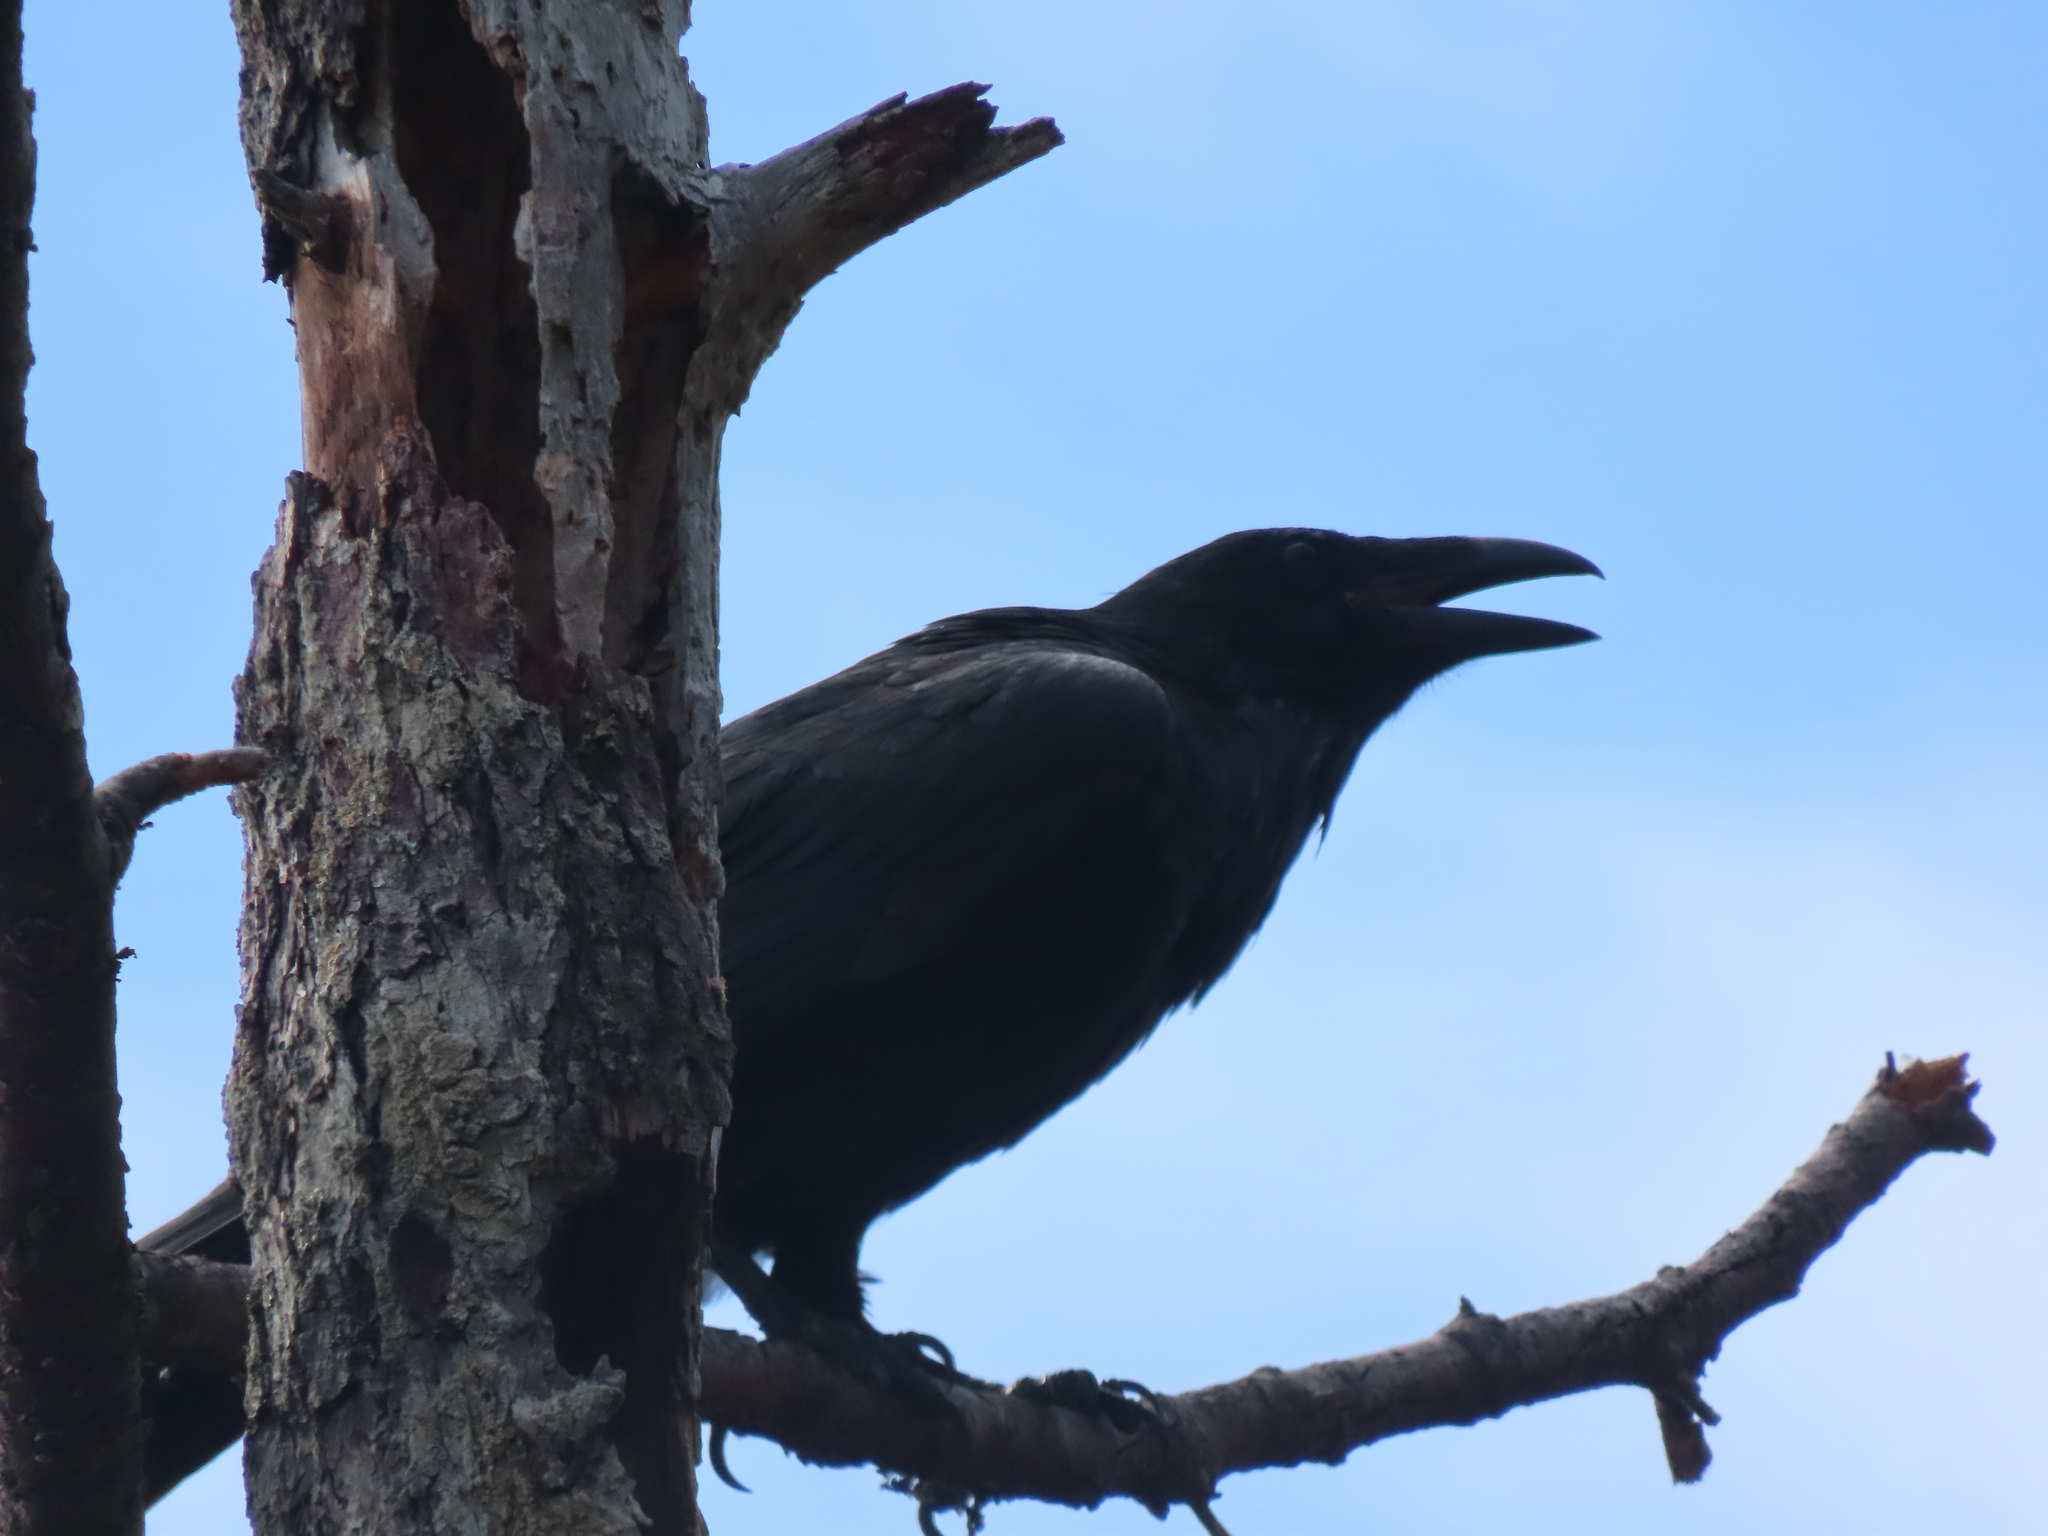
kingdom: Animalia
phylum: Chordata
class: Aves
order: Passeriformes
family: Corvidae
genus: Corvus
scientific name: Corvus corax
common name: Common raven
